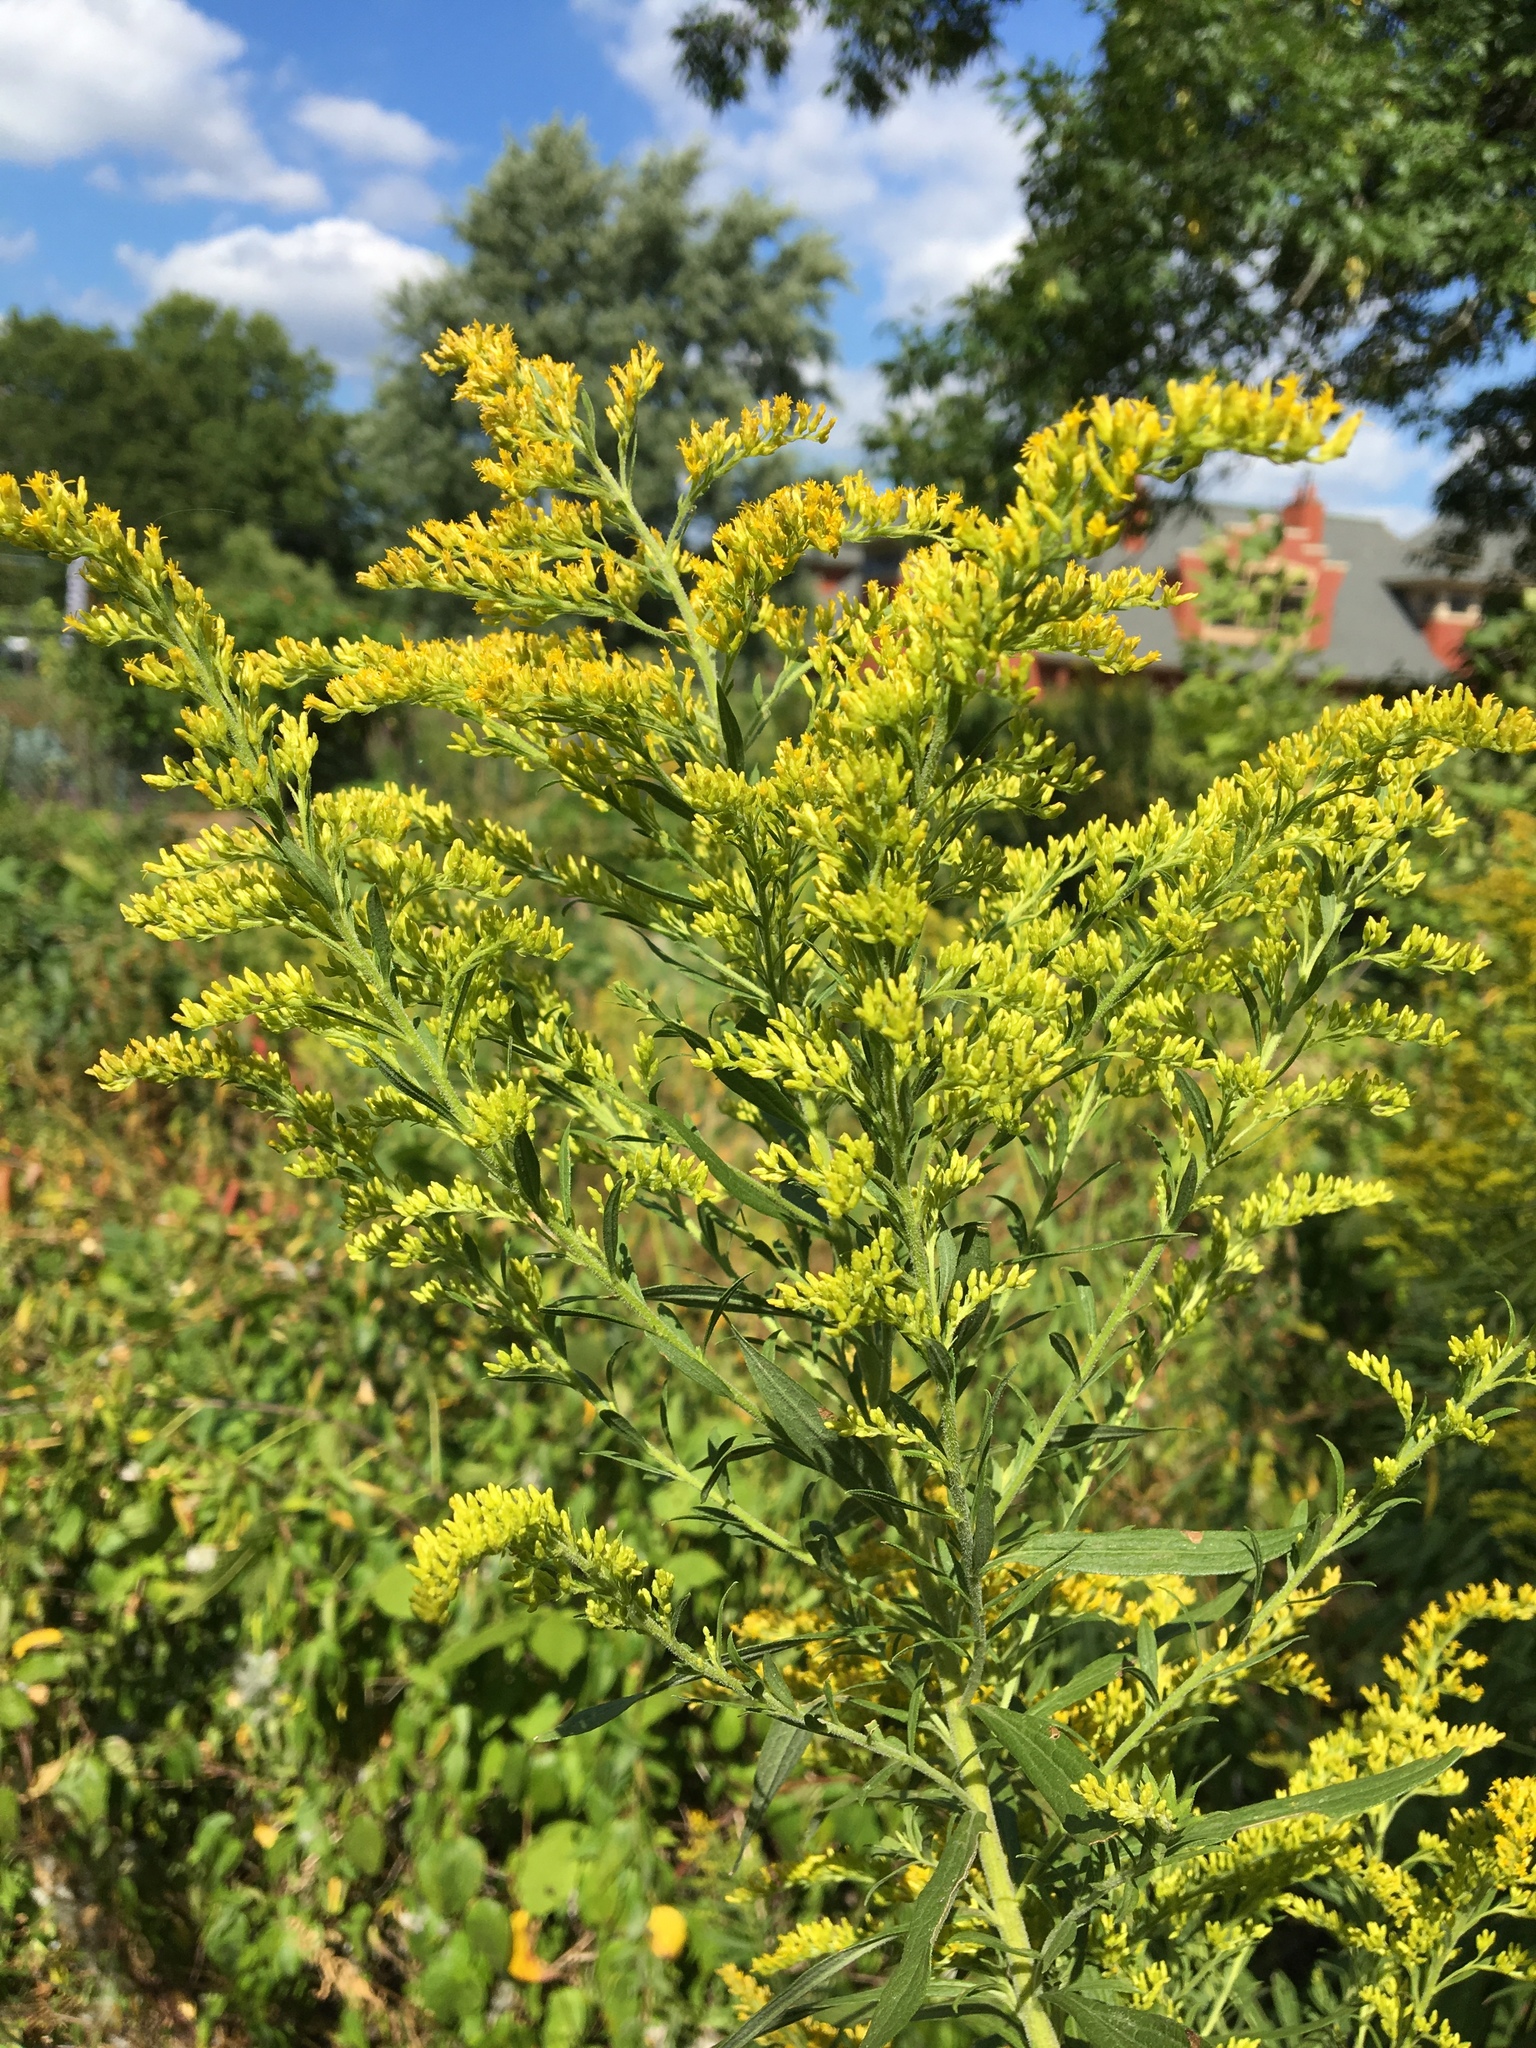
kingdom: Plantae
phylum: Tracheophyta
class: Magnoliopsida
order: Asterales
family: Asteraceae
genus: Solidago
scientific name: Solidago canadensis
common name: Canada goldenrod
